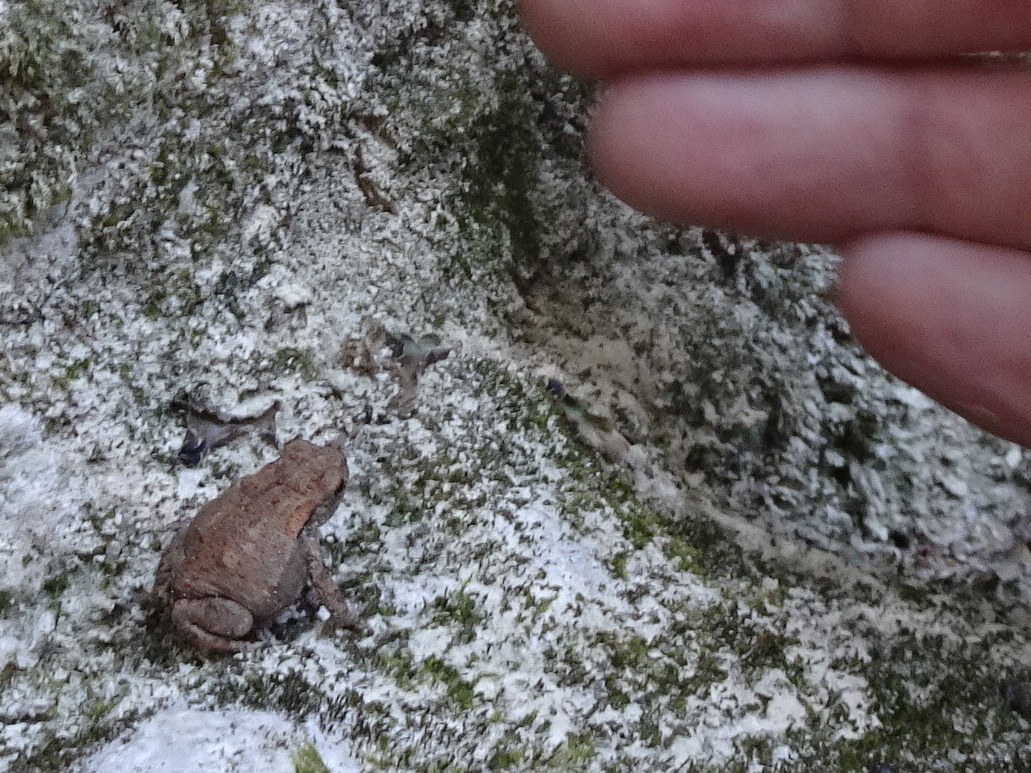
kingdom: Animalia
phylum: Chordata
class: Amphibia
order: Anura
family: Bufonidae
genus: Bufo
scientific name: Bufo spinosus
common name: Western common toad
